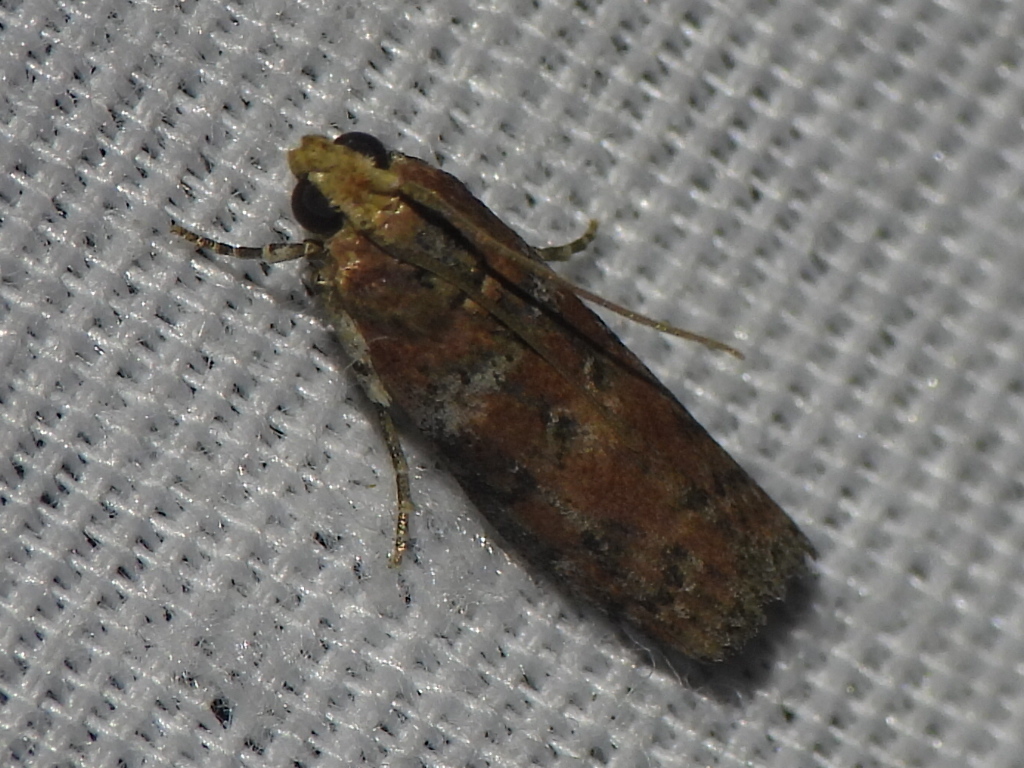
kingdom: Animalia
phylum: Arthropoda
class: Insecta
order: Lepidoptera
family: Pyralidae
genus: Sciota
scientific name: Sciota
